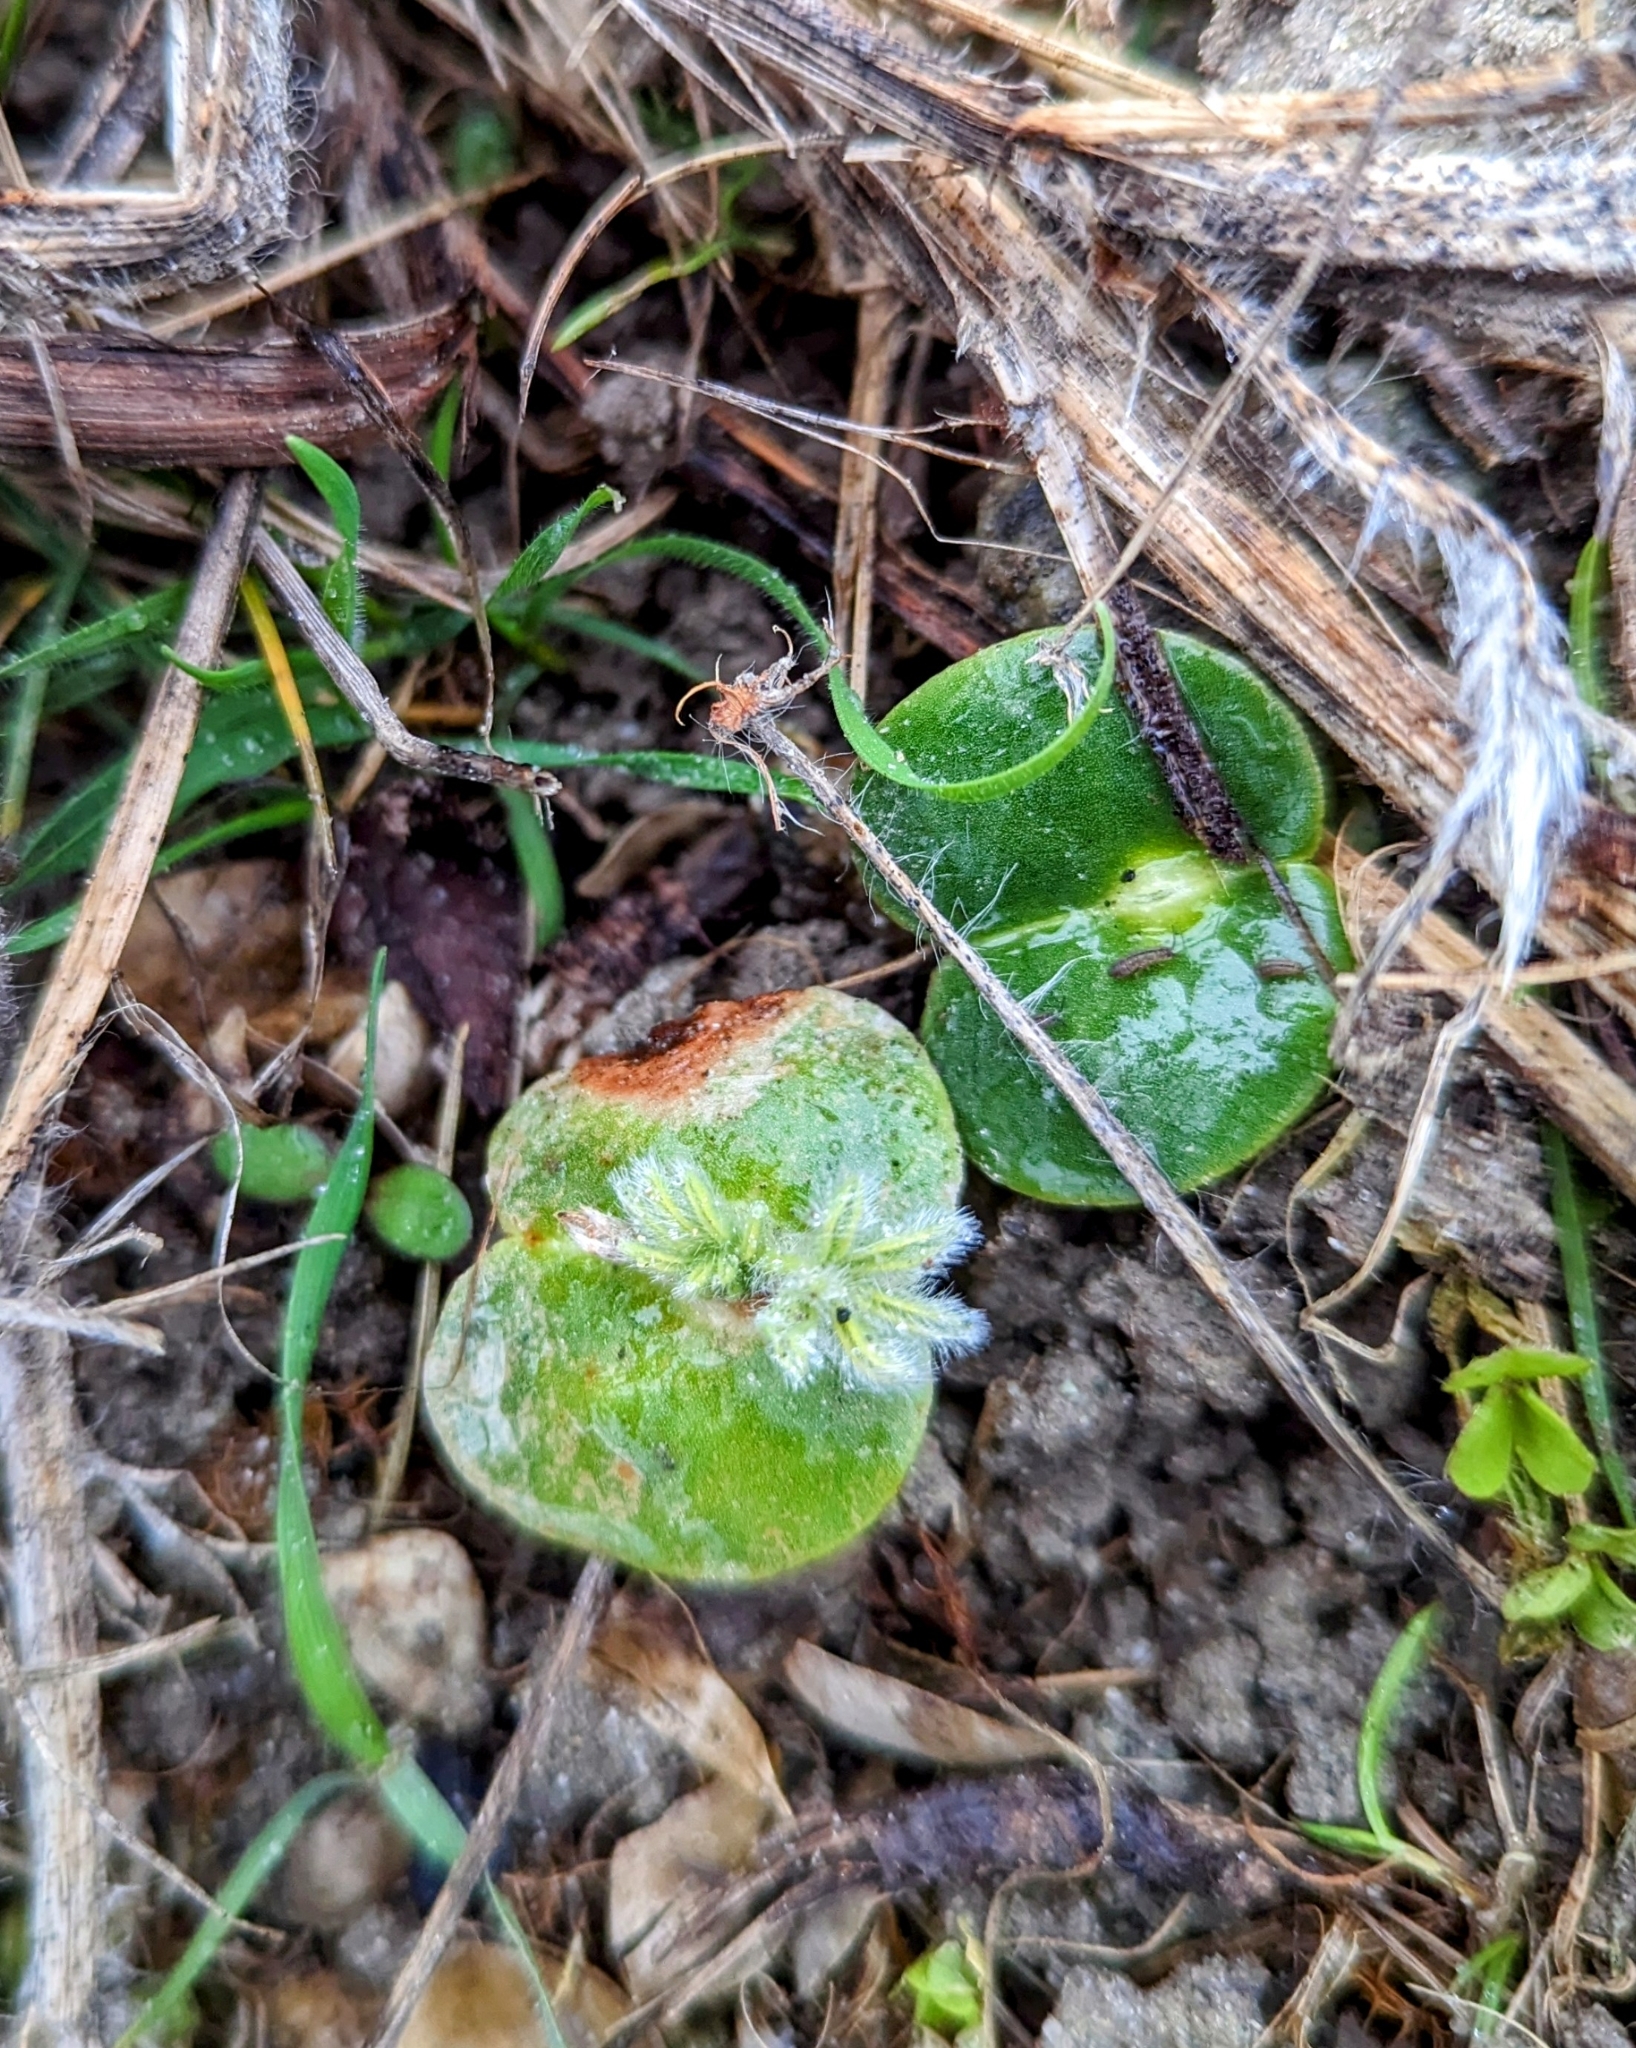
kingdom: Plantae
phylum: Tracheophyta
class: Magnoliopsida
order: Fabales
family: Fabaceae
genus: Lupinus
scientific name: Lupinus densiflorus
